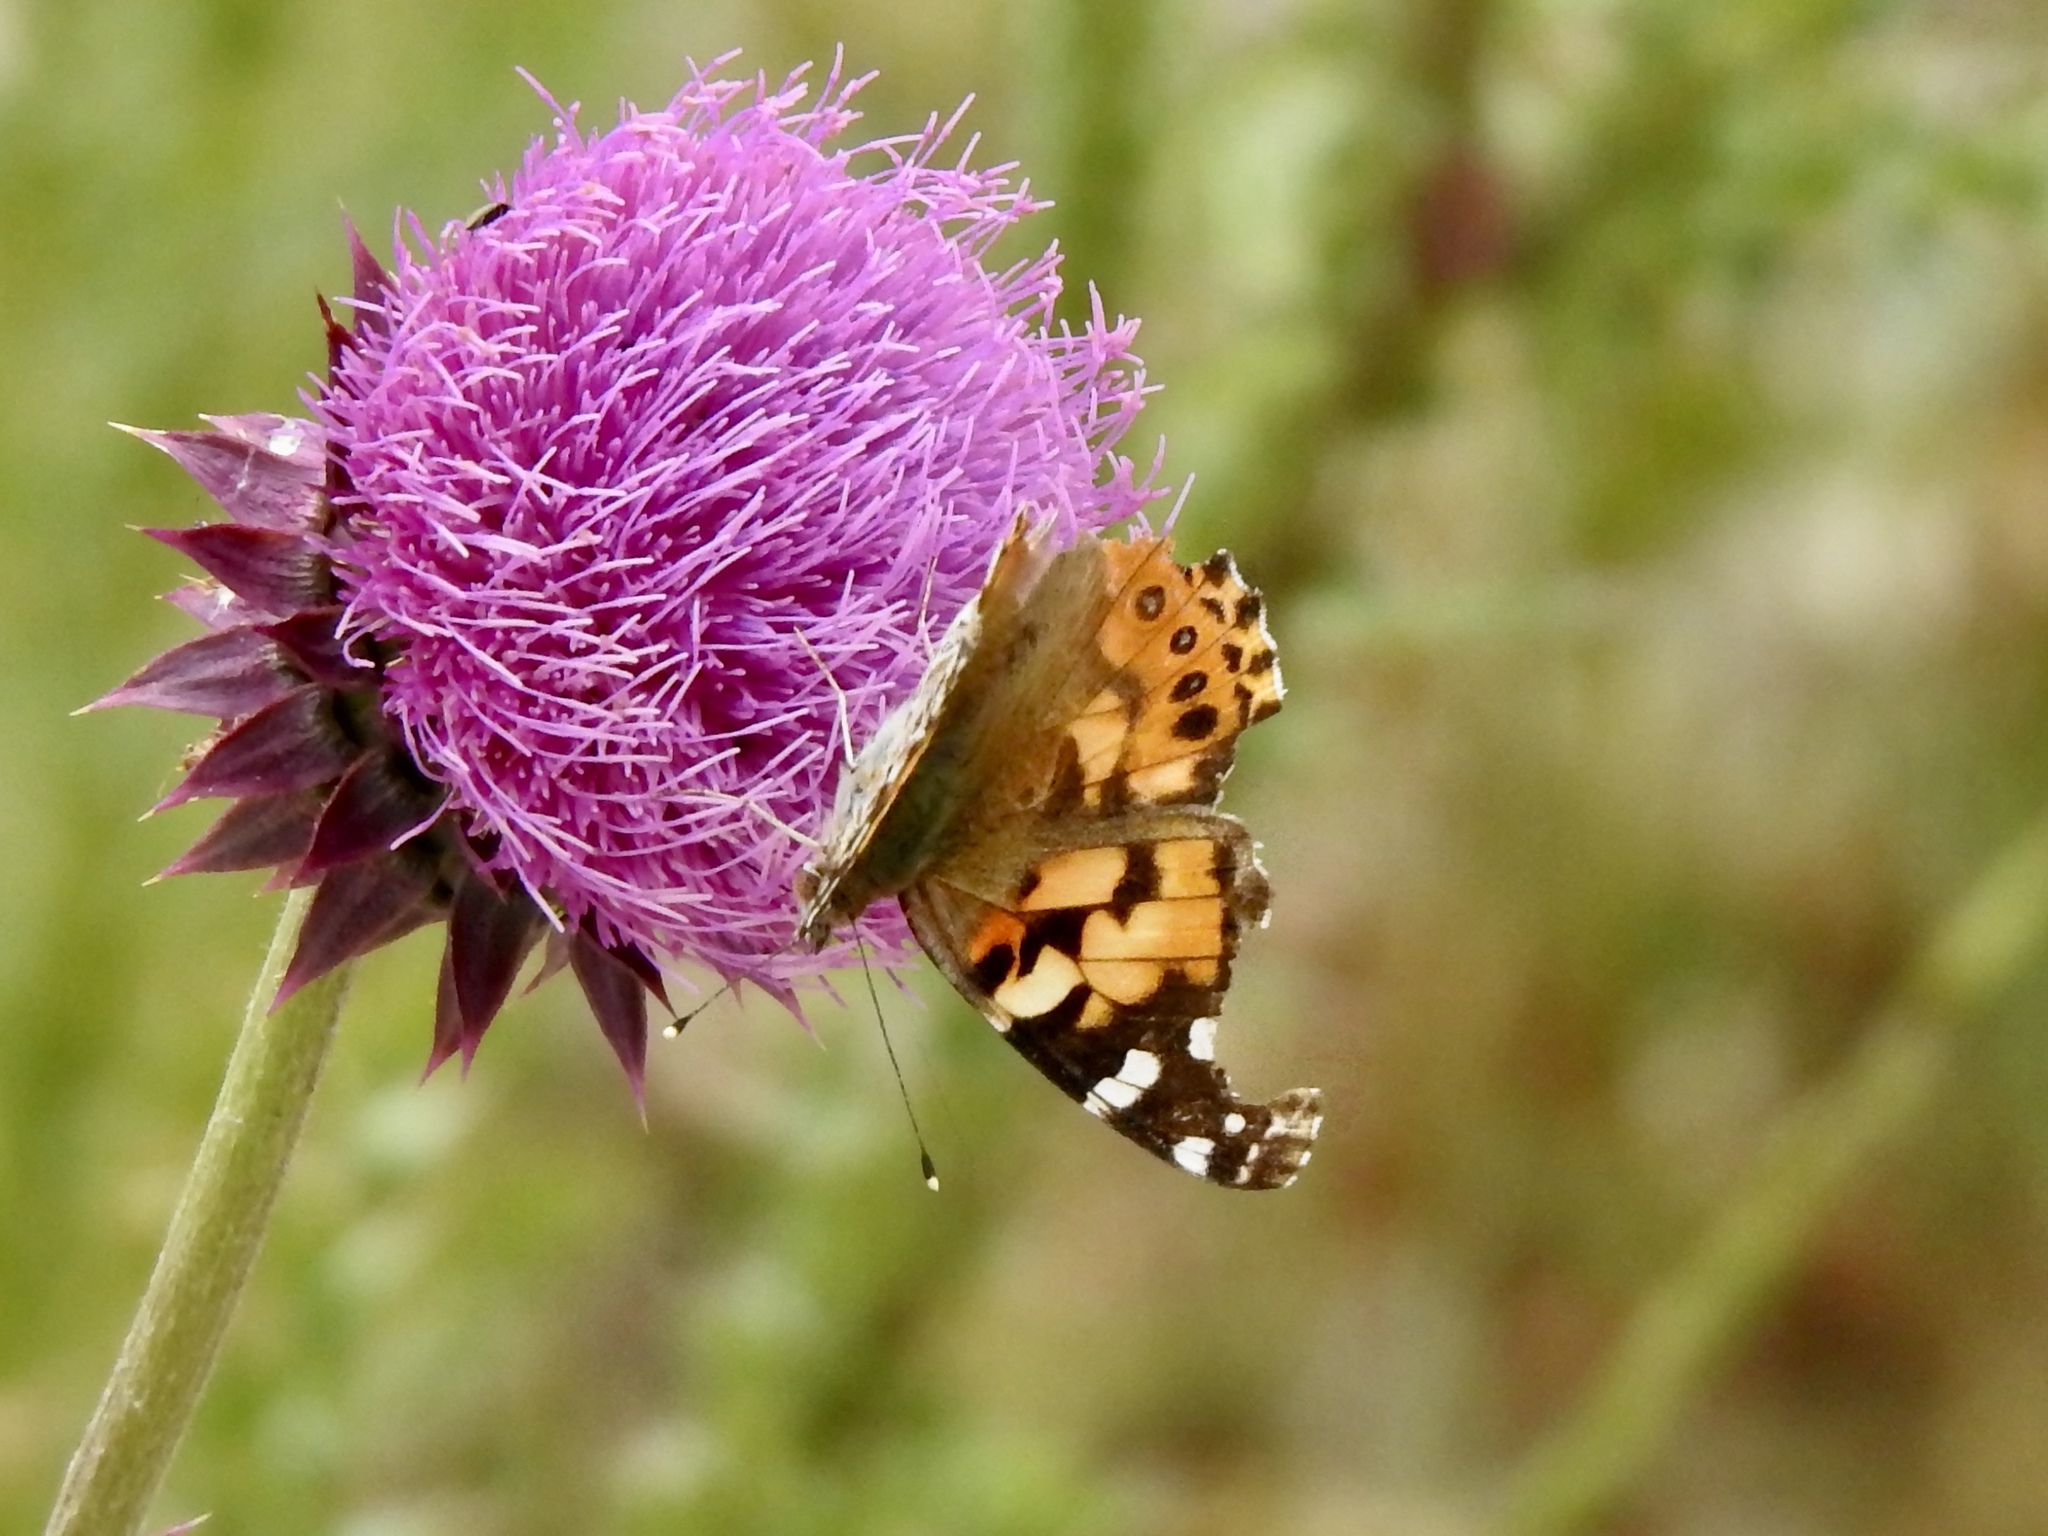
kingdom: Animalia
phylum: Arthropoda
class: Insecta
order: Lepidoptera
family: Nymphalidae
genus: Vanessa
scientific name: Vanessa cardui
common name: Painted lady
